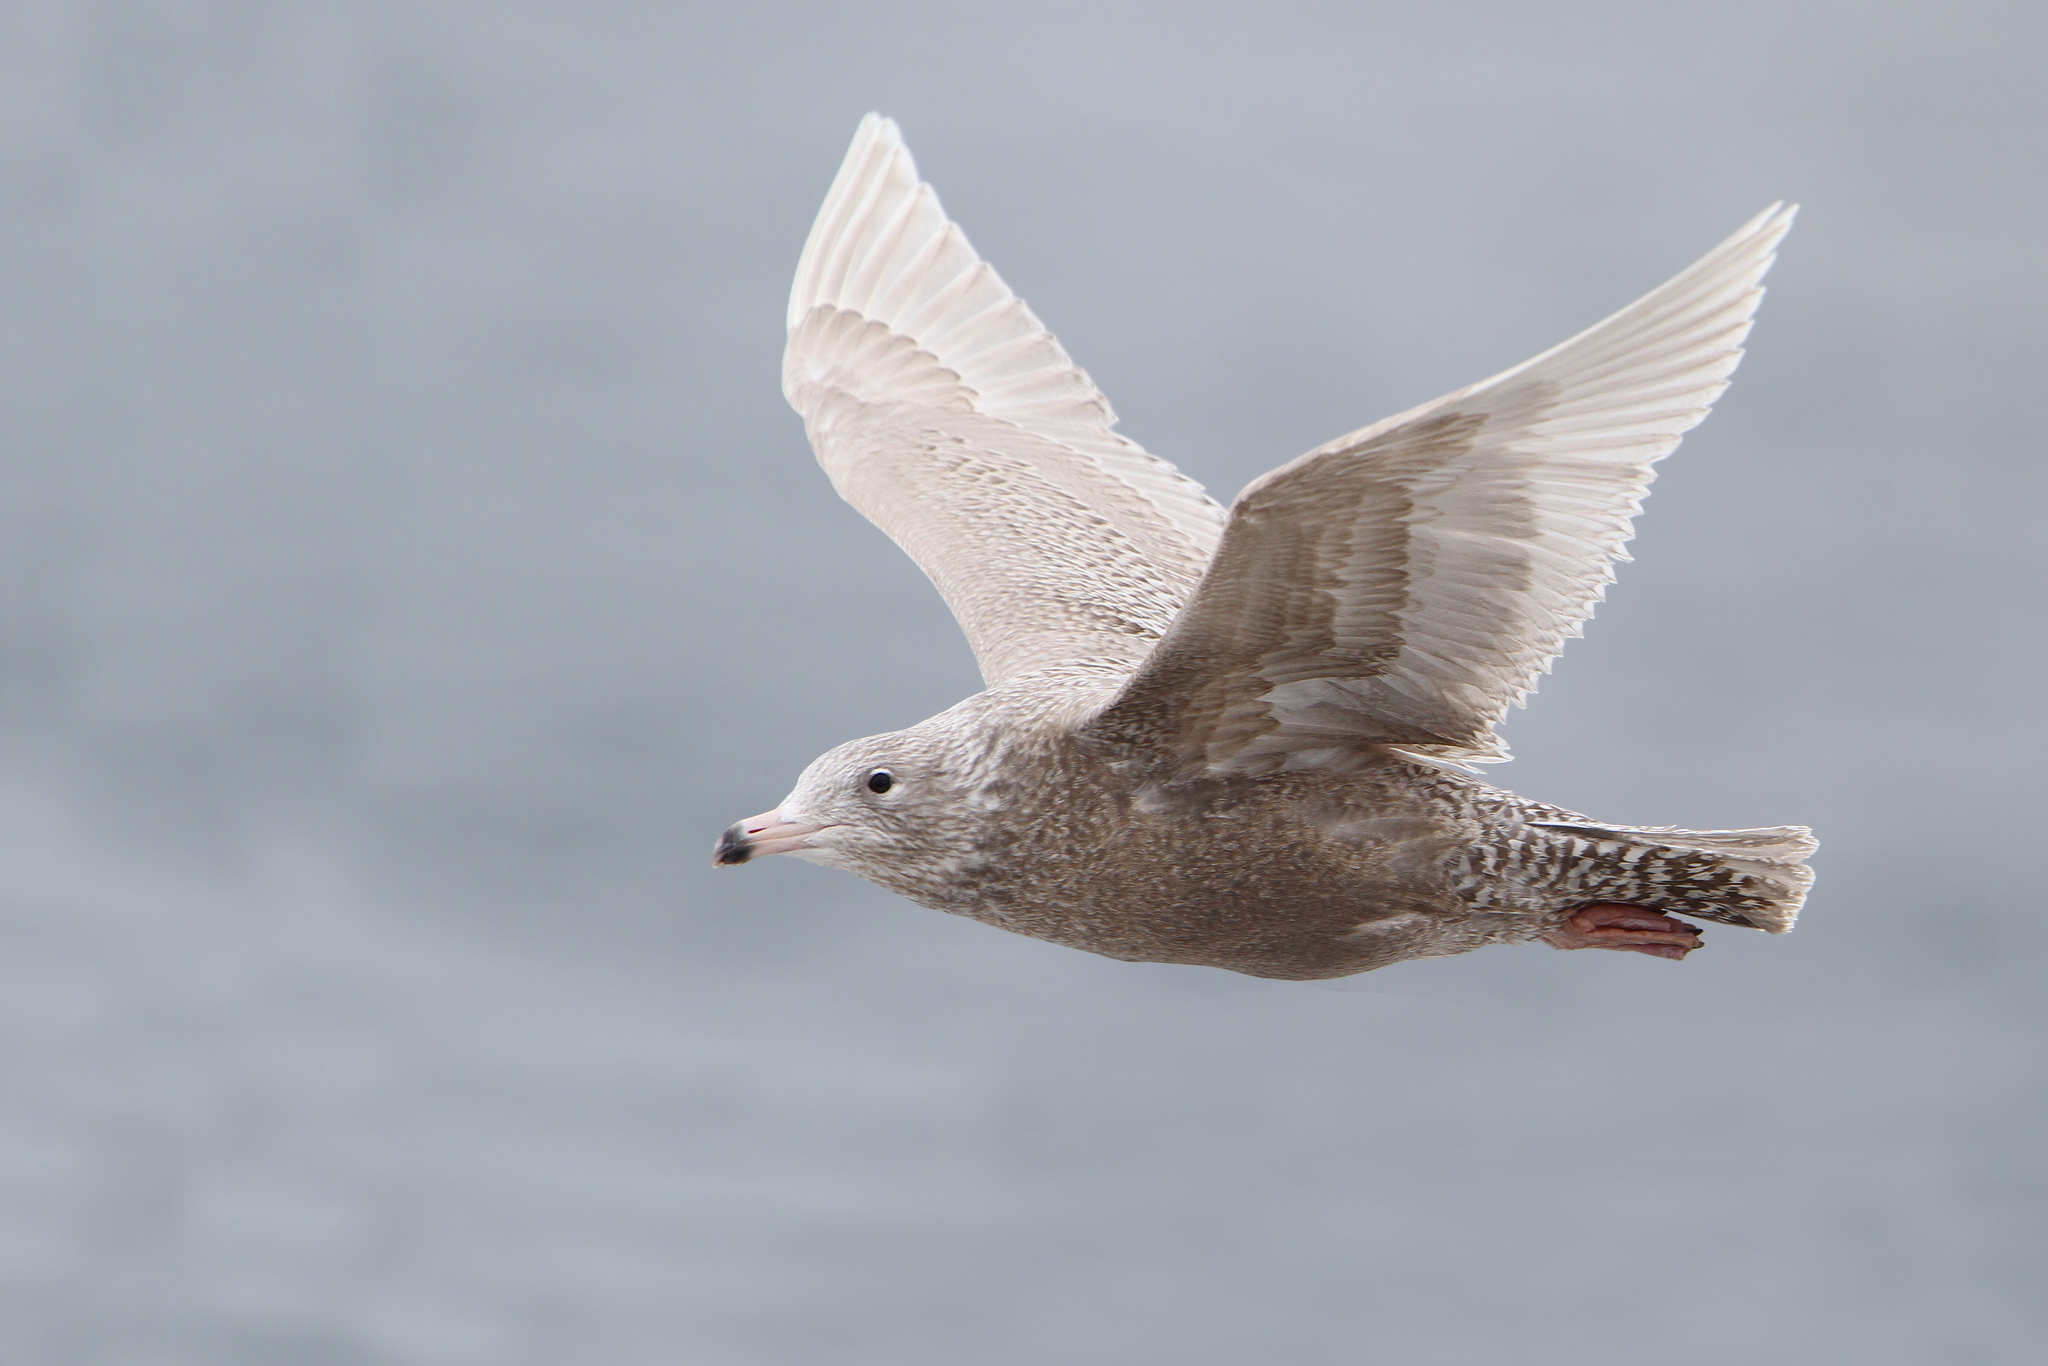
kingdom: Animalia
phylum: Chordata
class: Aves
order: Charadriiformes
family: Laridae
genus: Larus
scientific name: Larus hyperboreus
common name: Glaucous gull
